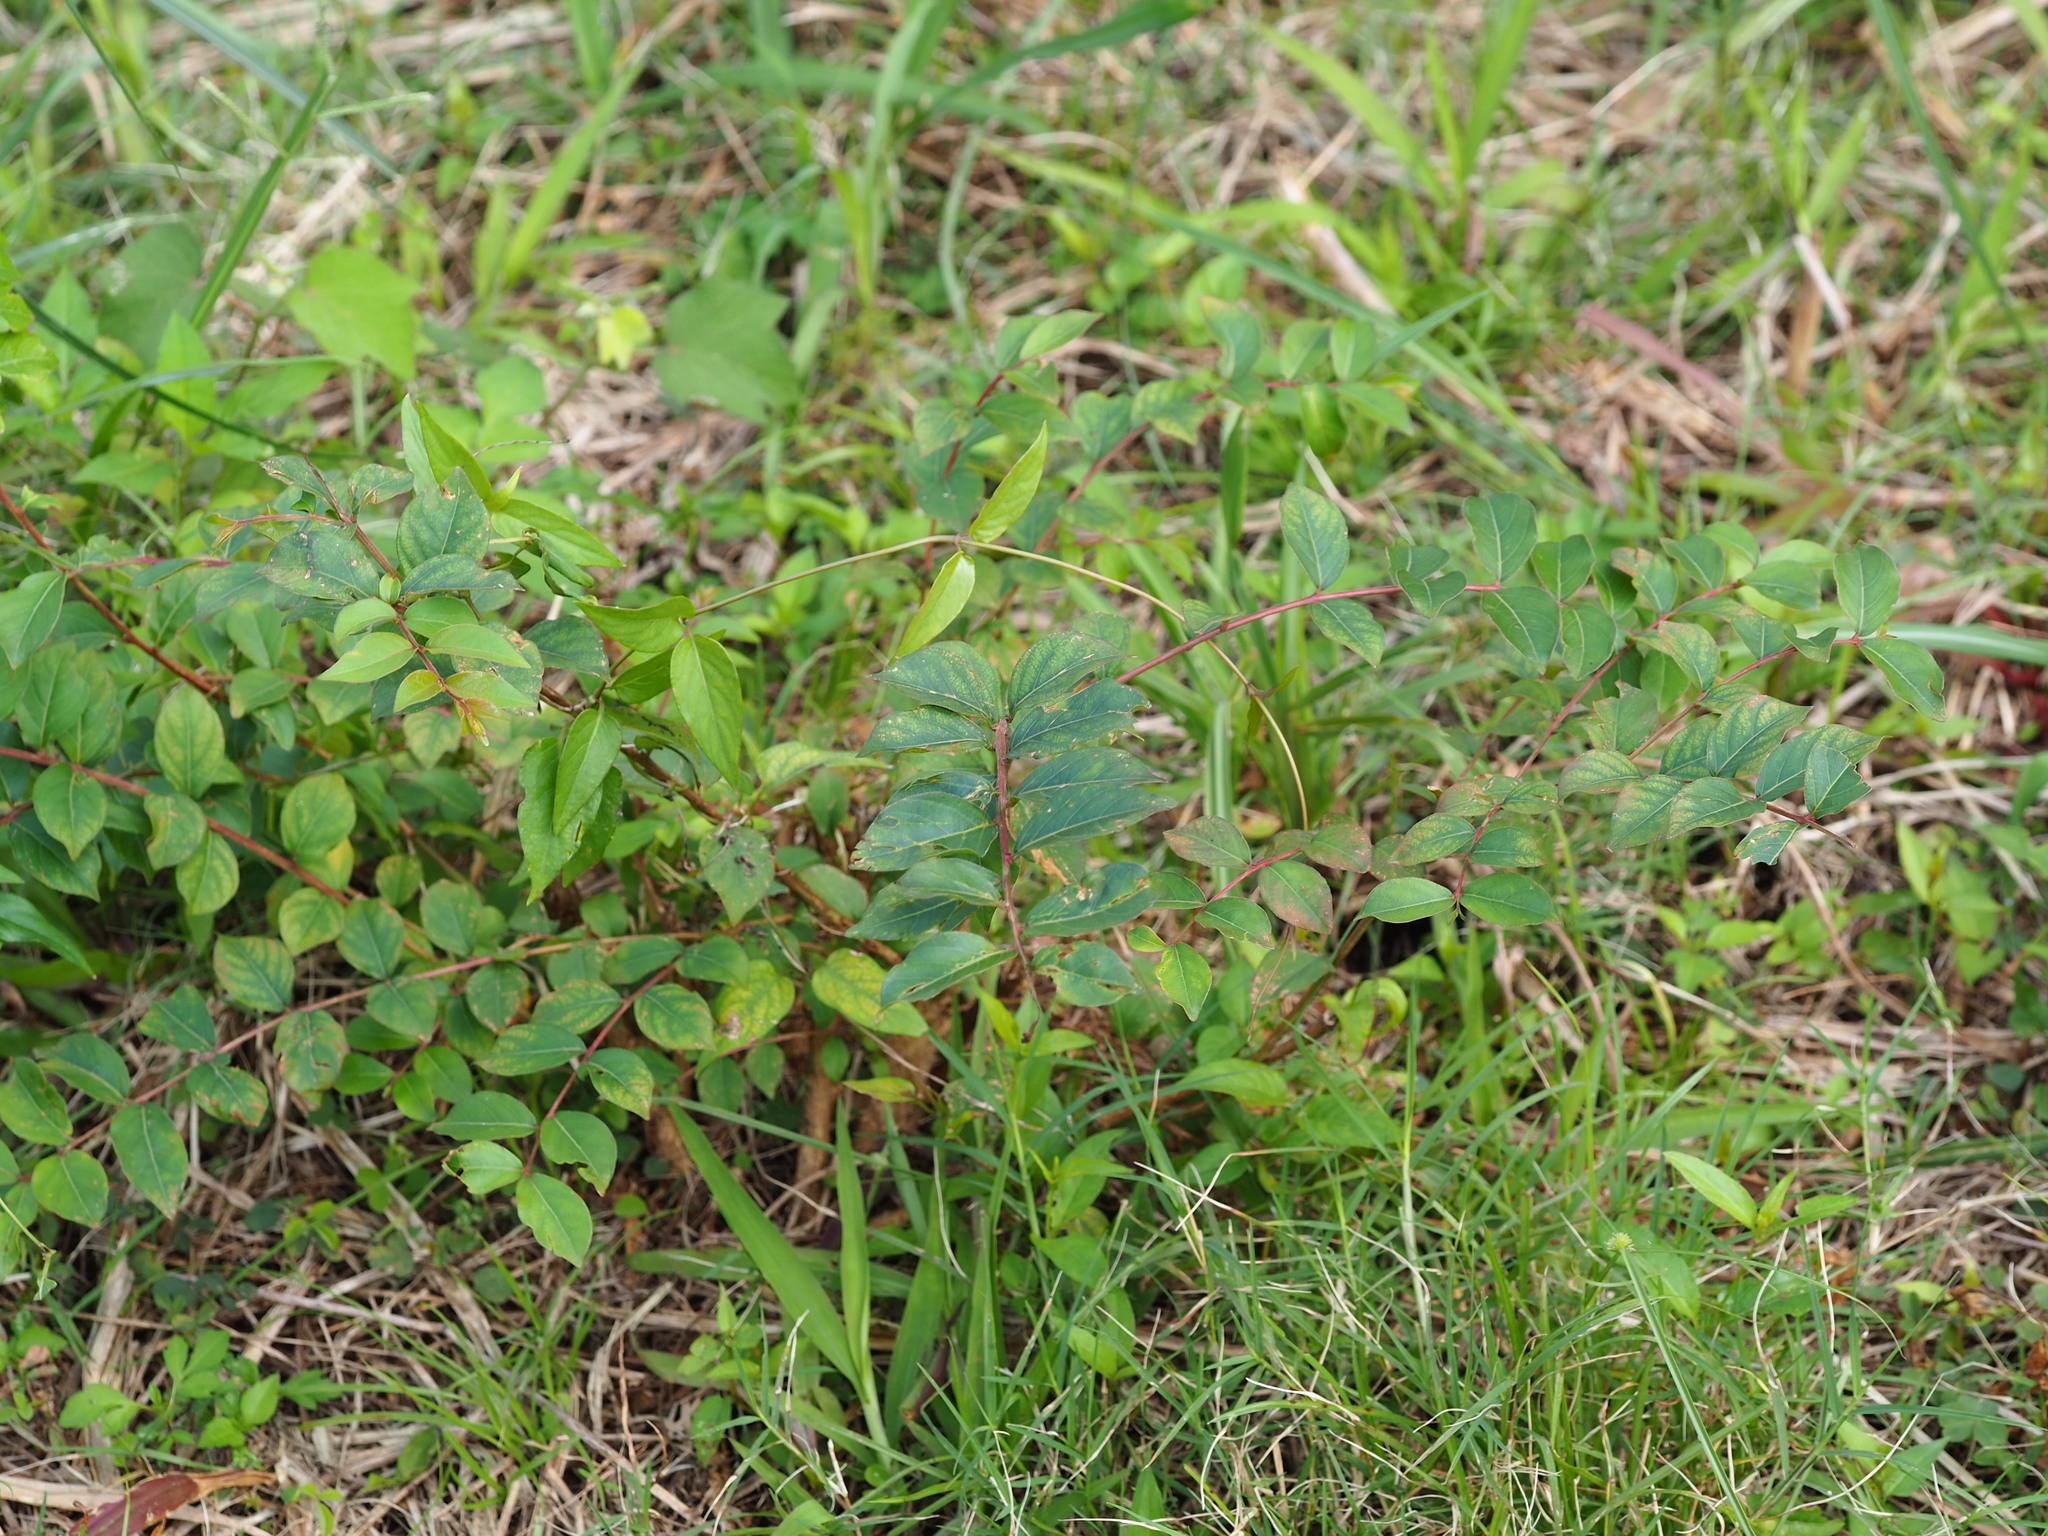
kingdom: Plantae
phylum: Tracheophyta
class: Magnoliopsida
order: Myrtales
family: Lythraceae
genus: Lagerstroemia
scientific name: Lagerstroemia subcostata
